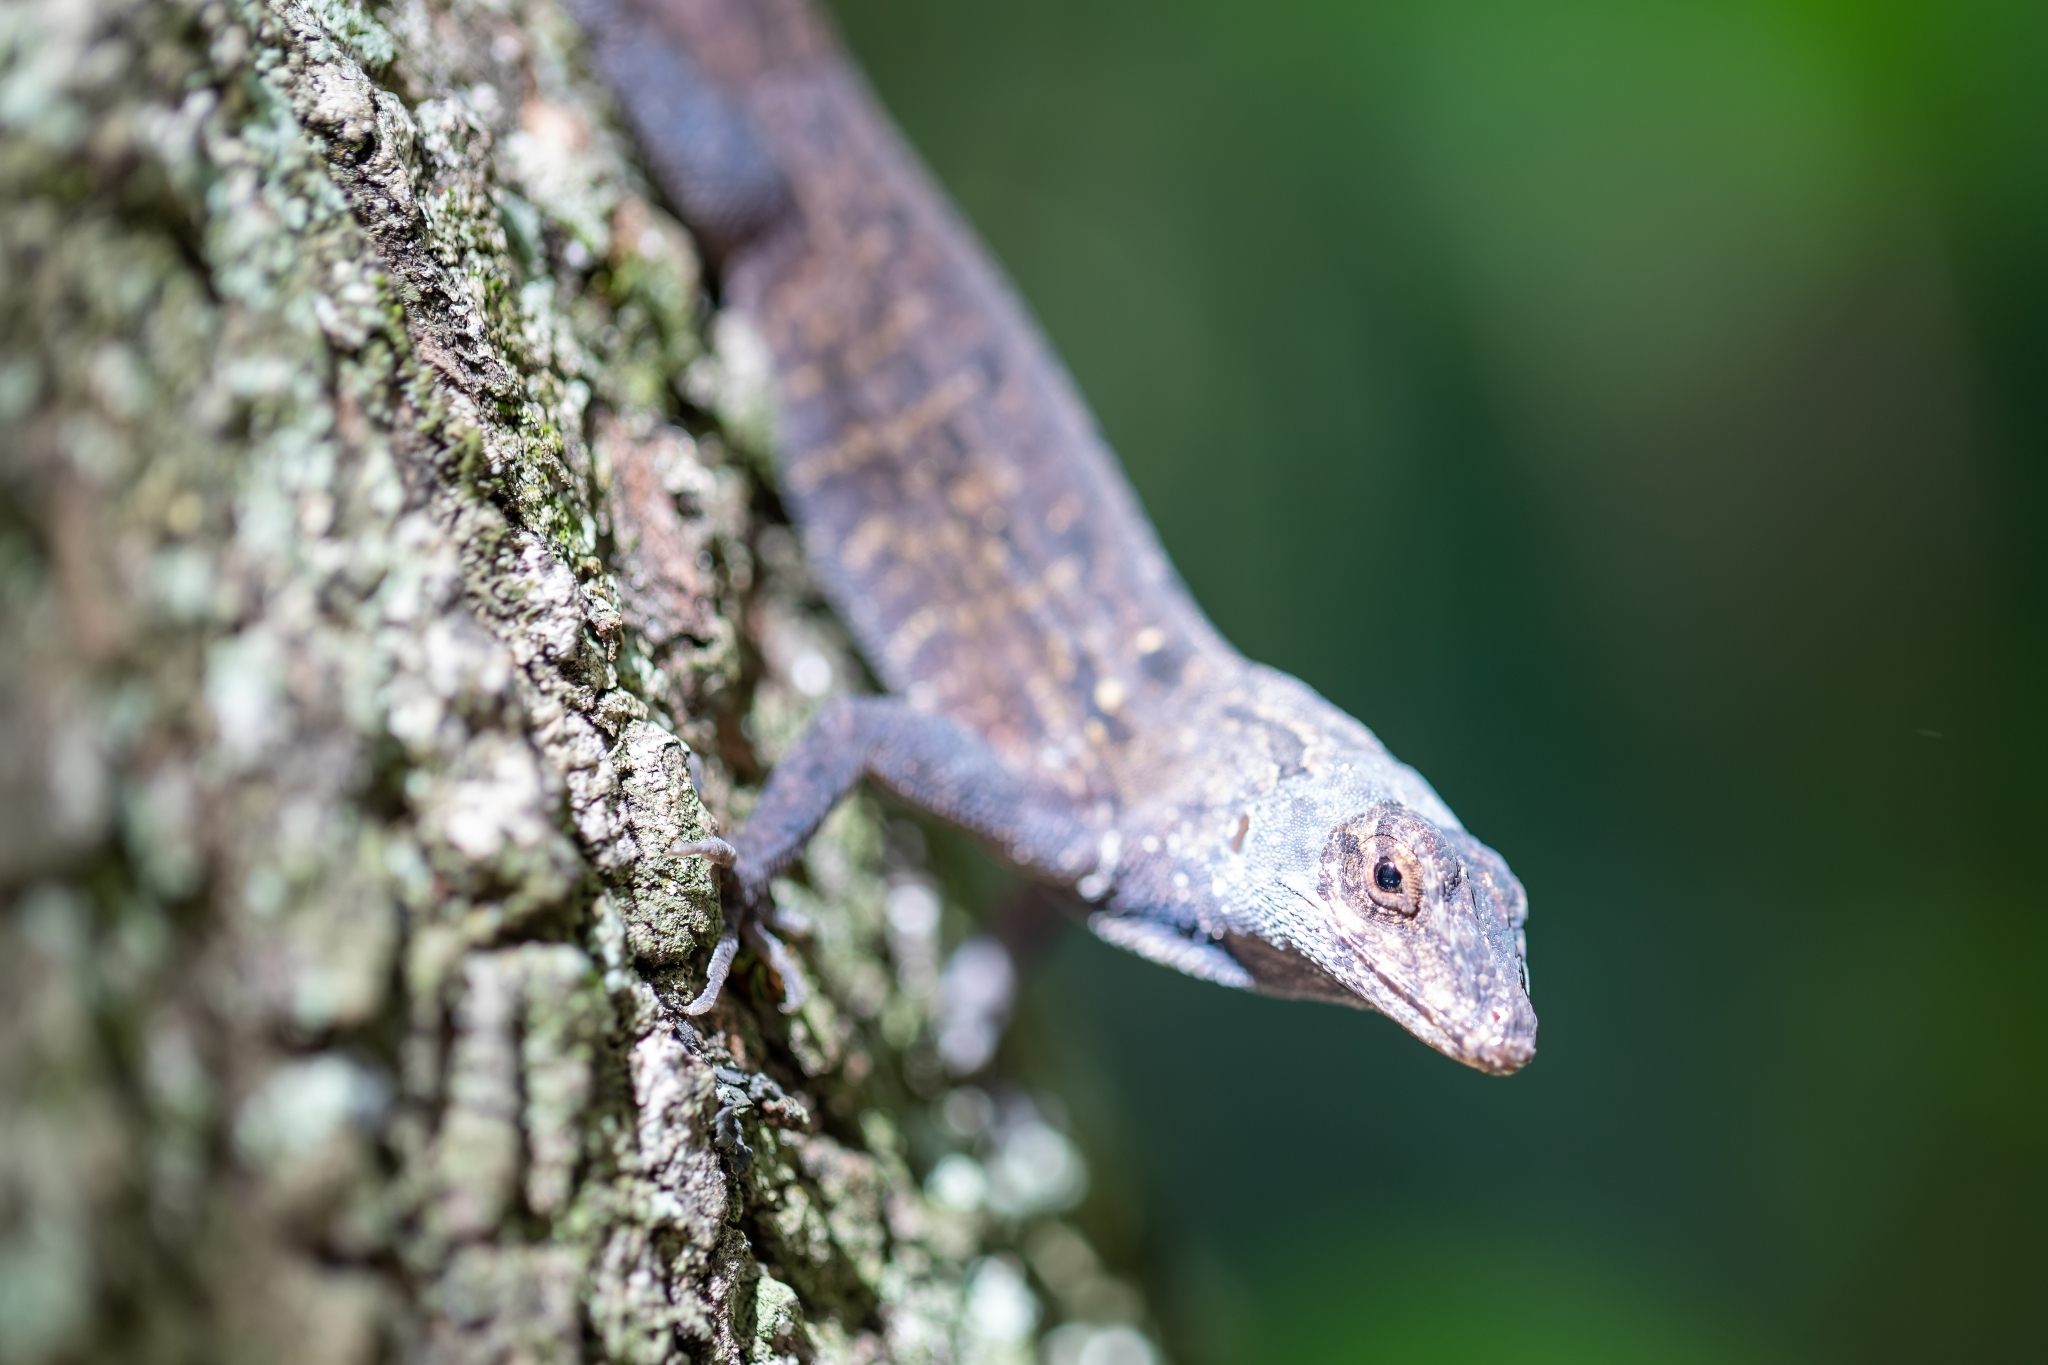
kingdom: Animalia
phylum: Chordata
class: Squamata
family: Dactyloidae
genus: Anolis
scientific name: Anolis sagrei
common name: Brown anole
